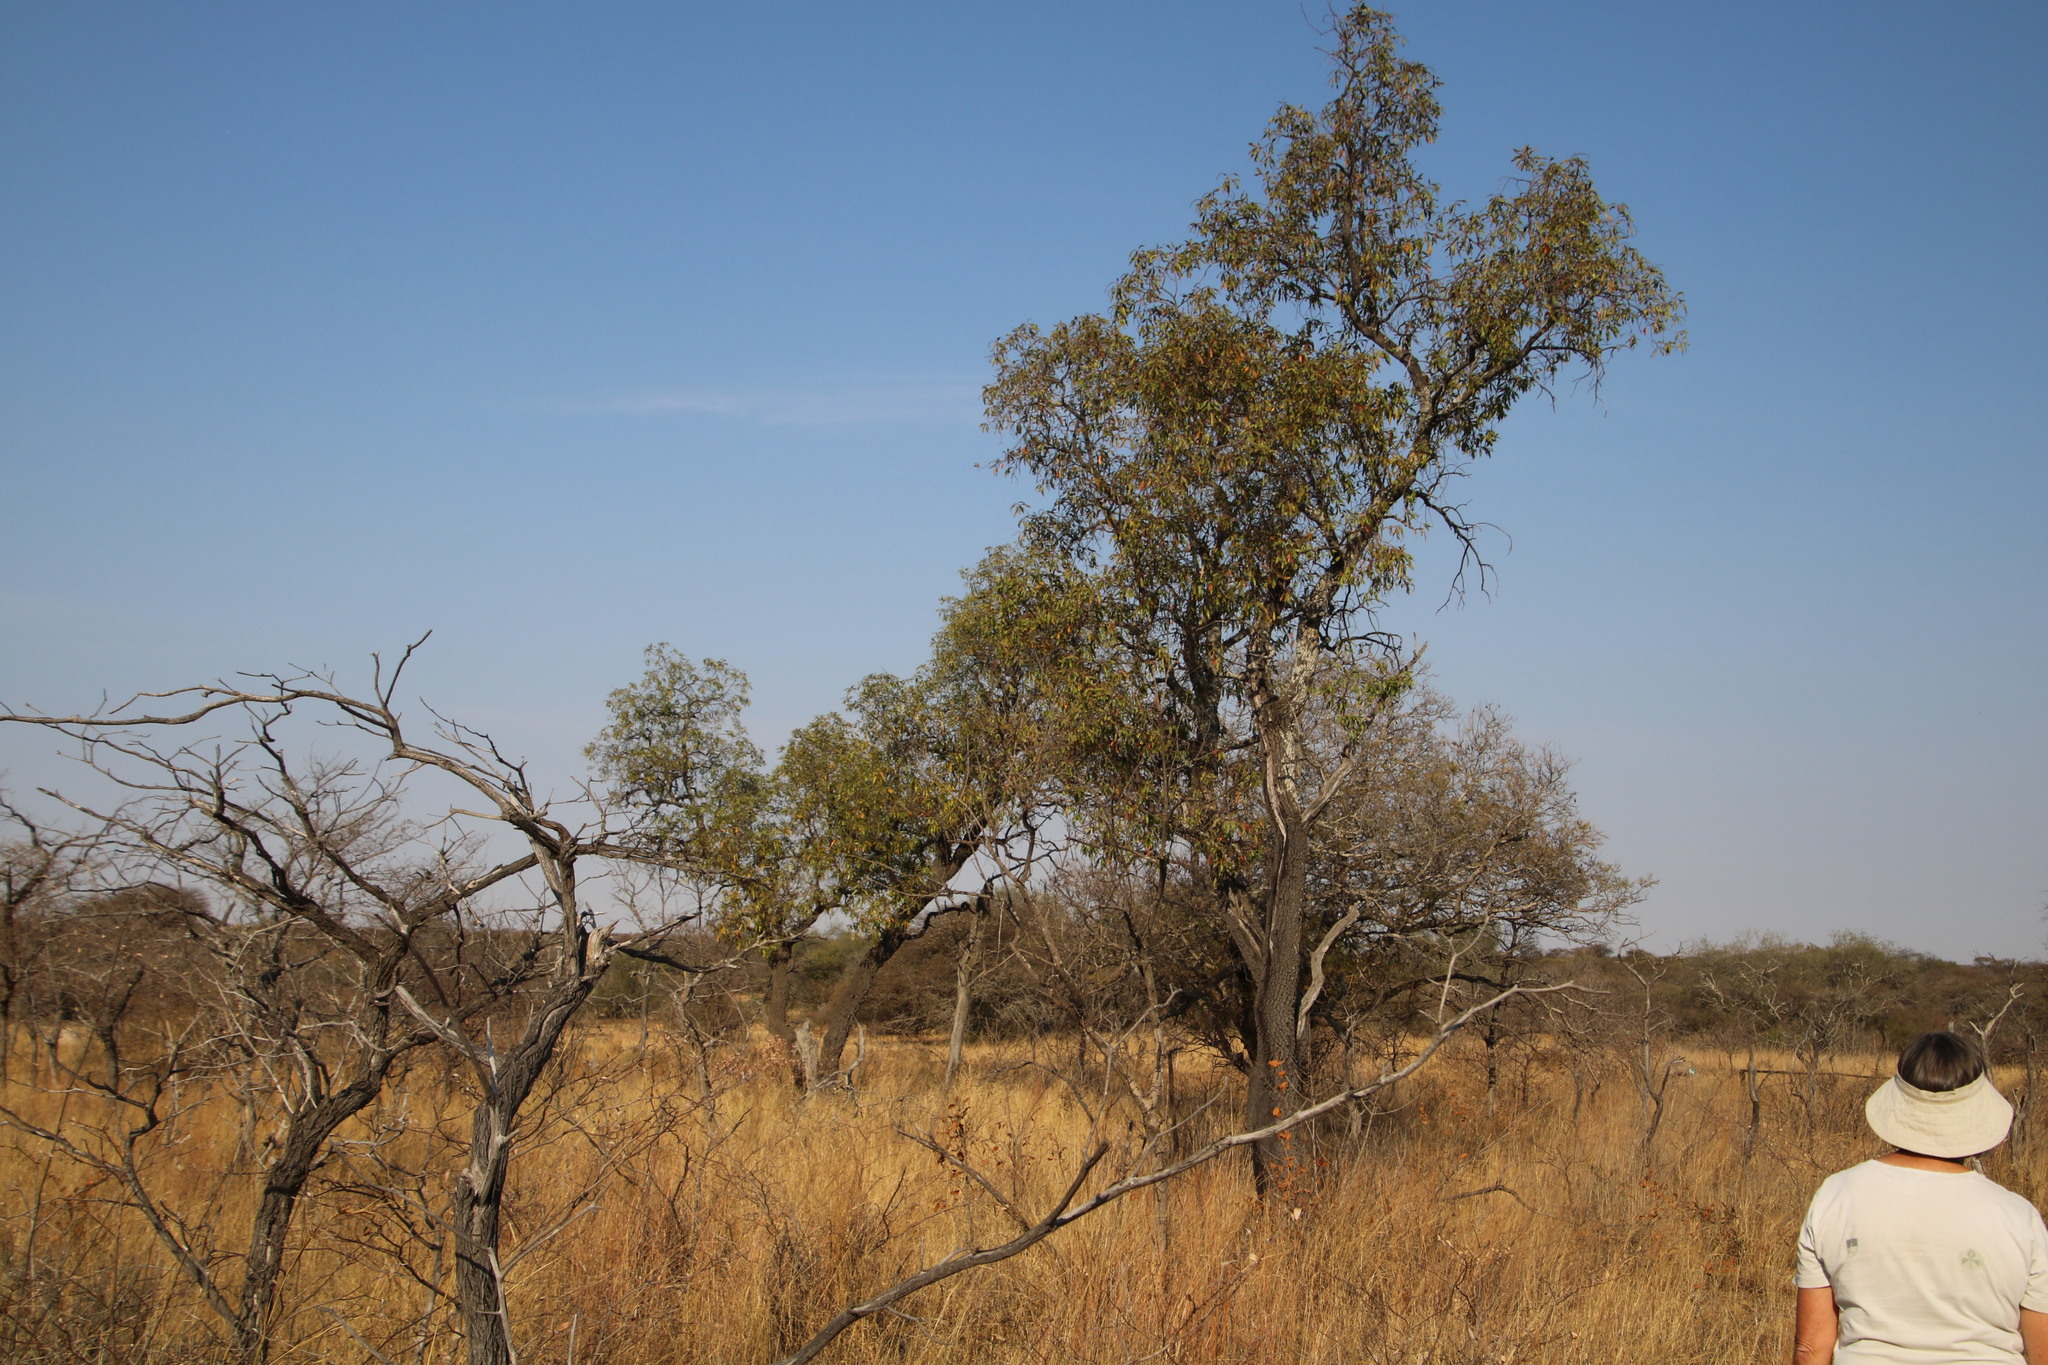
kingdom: Plantae
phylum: Tracheophyta
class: Magnoliopsida
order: Proteales
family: Proteaceae
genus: Faurea
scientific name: Faurea saligna
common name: African bean
